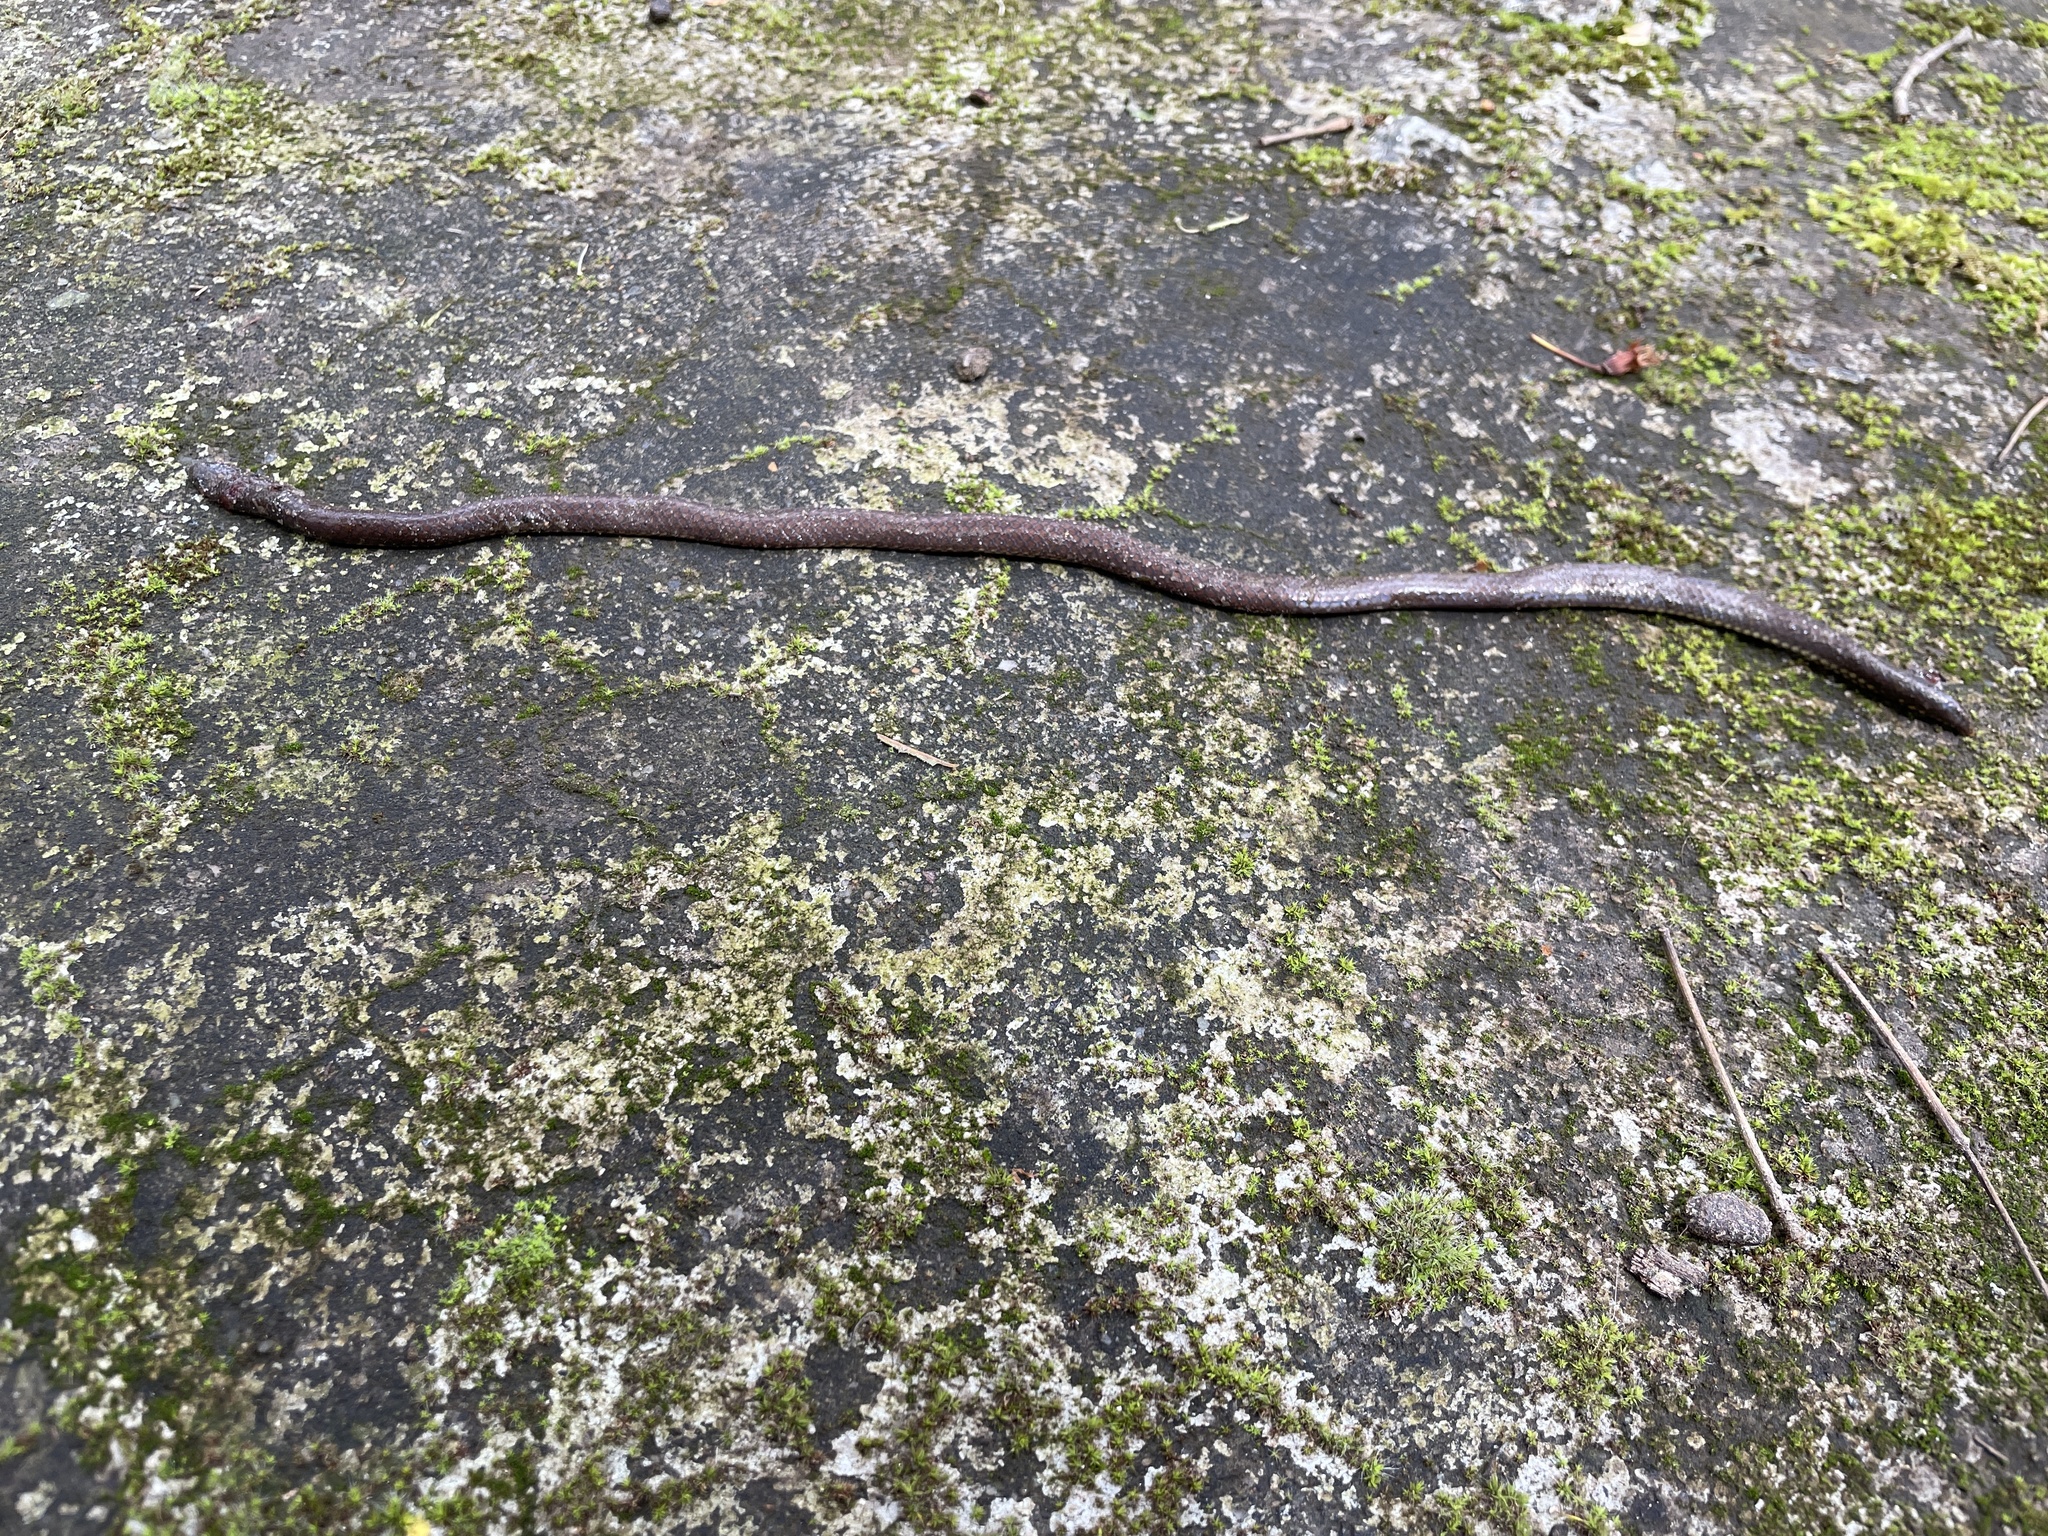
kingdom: Animalia
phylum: Chordata
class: Squamata
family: Uropeltidae
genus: Platyplectrurus
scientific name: Platyplectrurus madurensis
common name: Travancore hills thorntail snake
